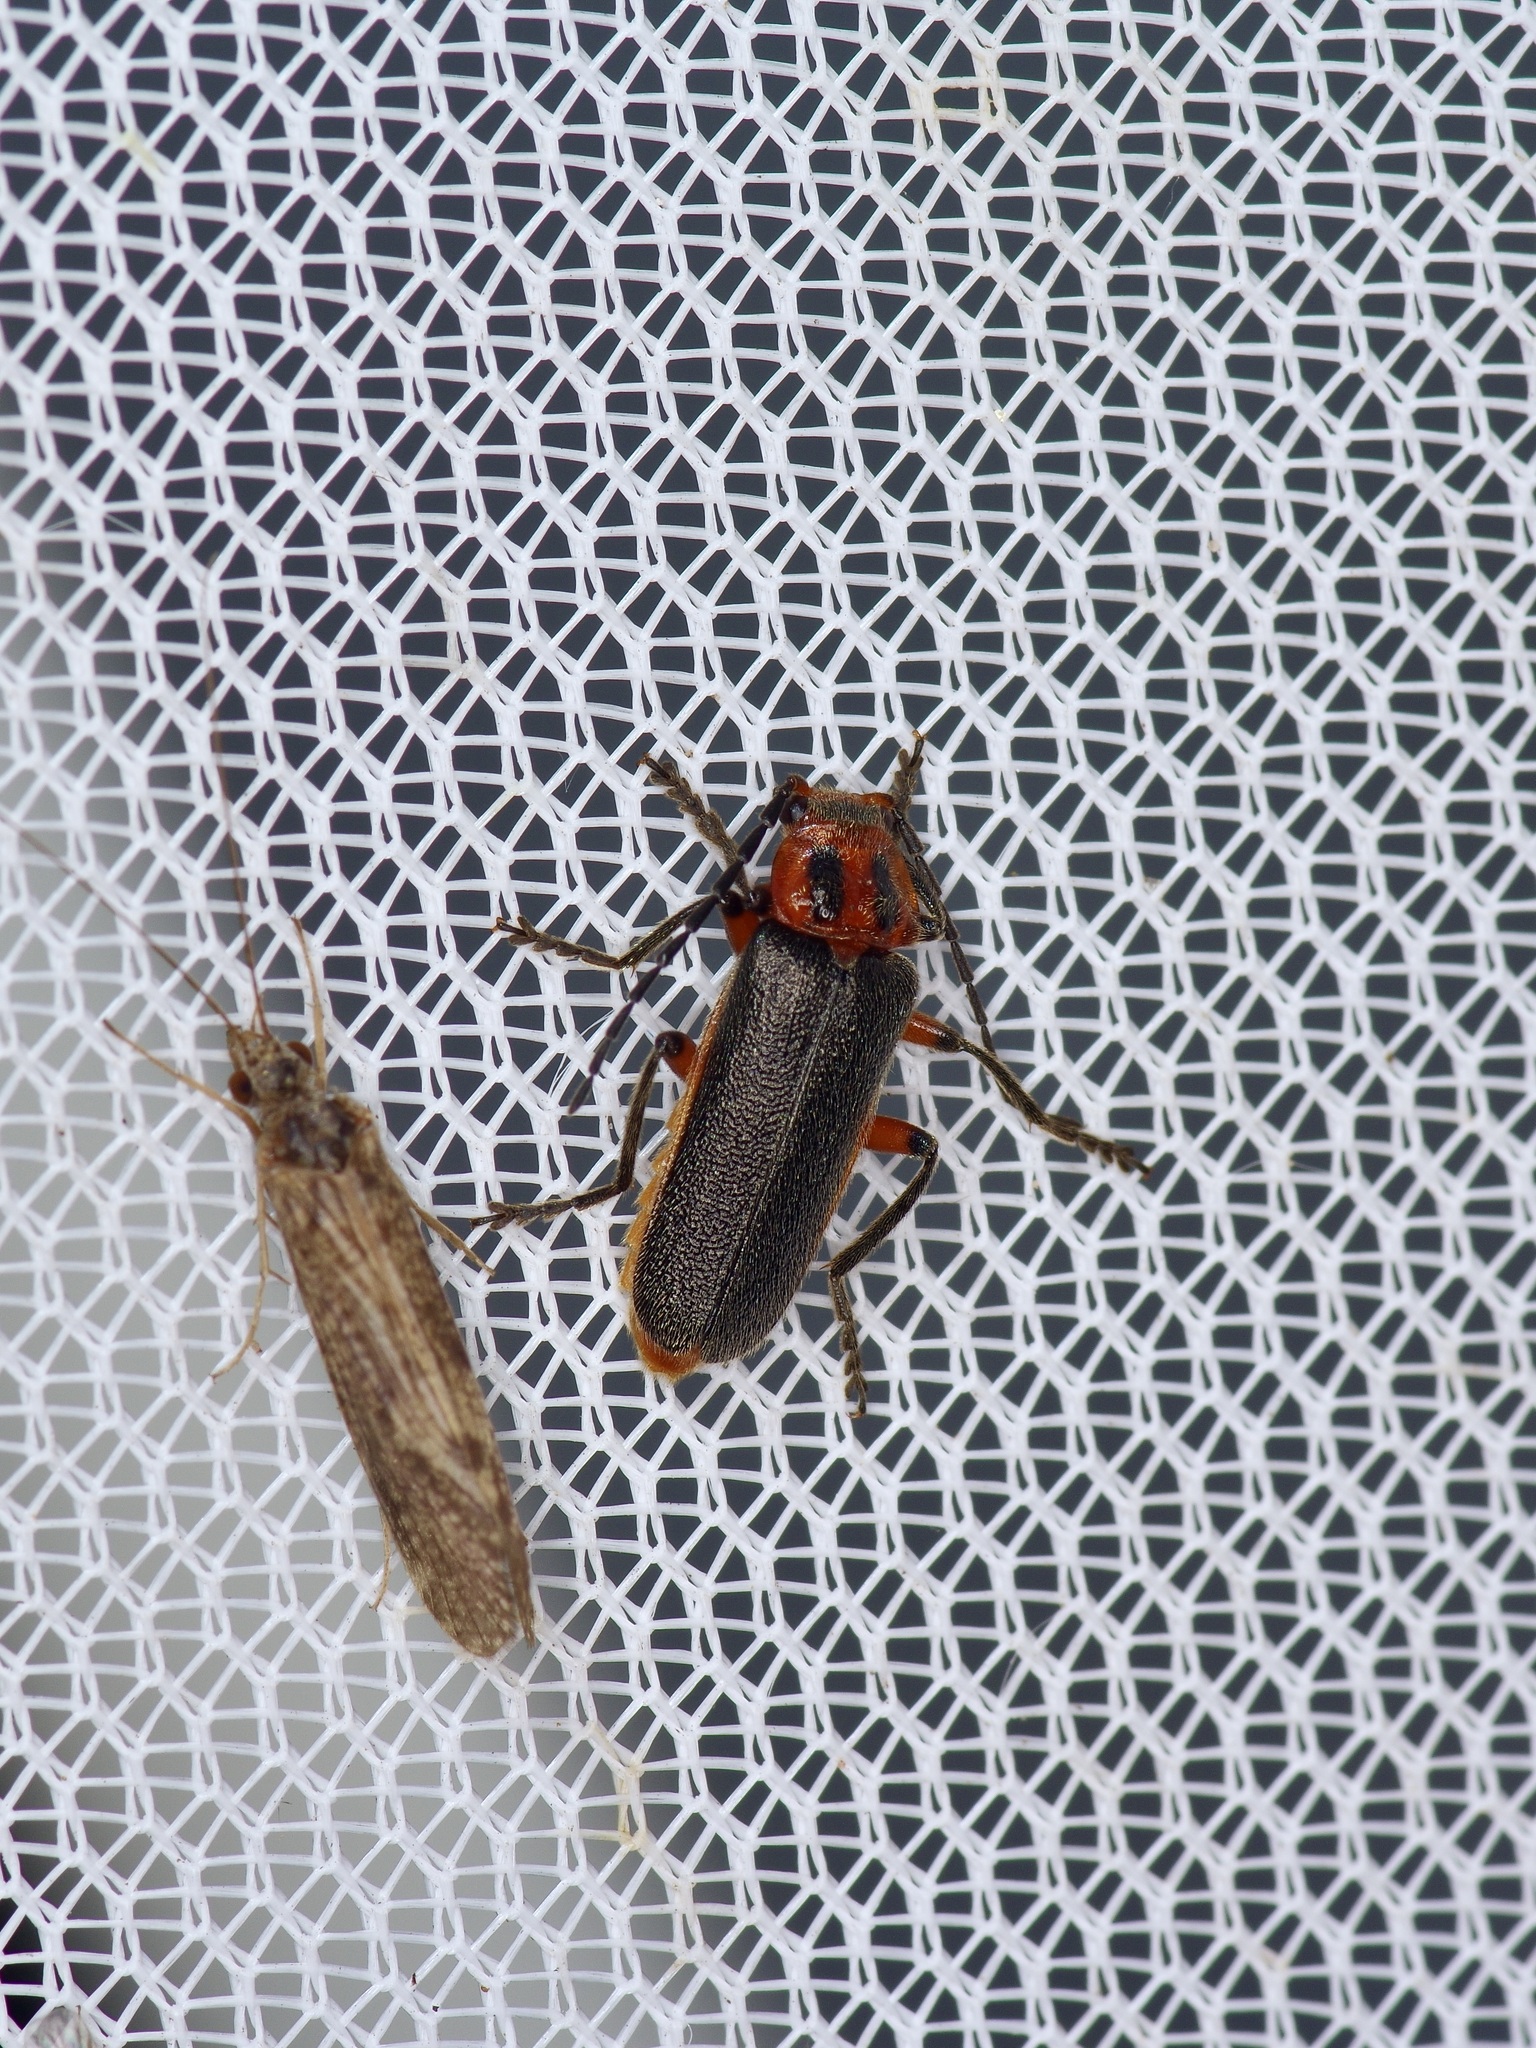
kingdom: Animalia
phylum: Arthropoda
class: Insecta
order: Coleoptera
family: Cantharidae
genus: Atalantycha
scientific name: Atalantycha bilineata
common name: Two-lined leatherwing
